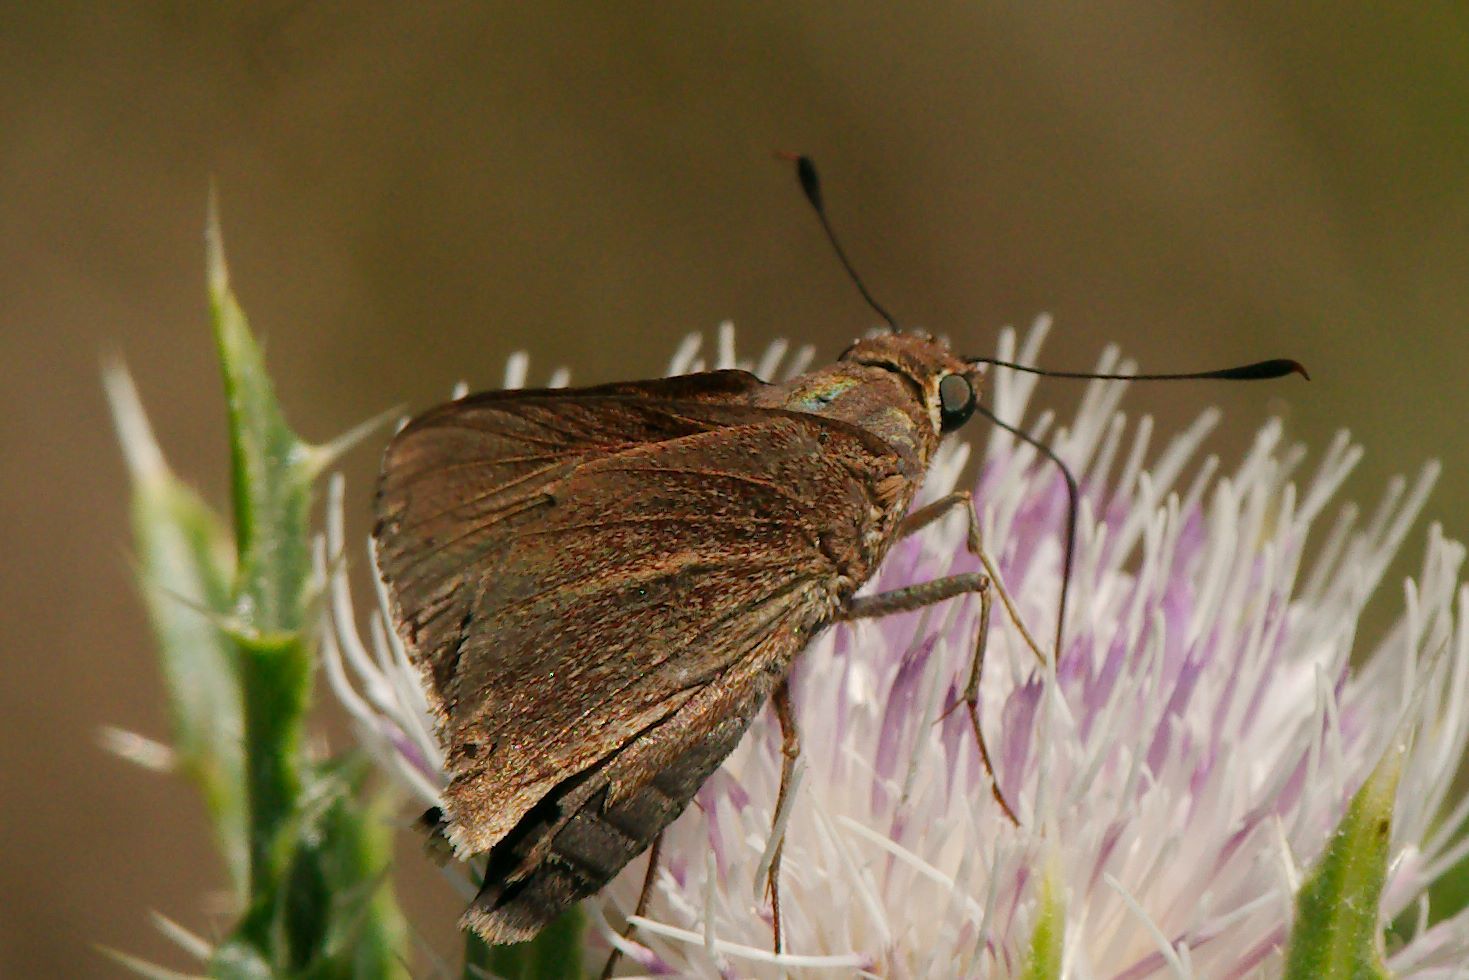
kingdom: Animalia
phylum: Arthropoda
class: Insecta
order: Lepidoptera
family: Hesperiidae
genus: Asbolis
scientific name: Asbolis capucinus
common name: Monk skipper
